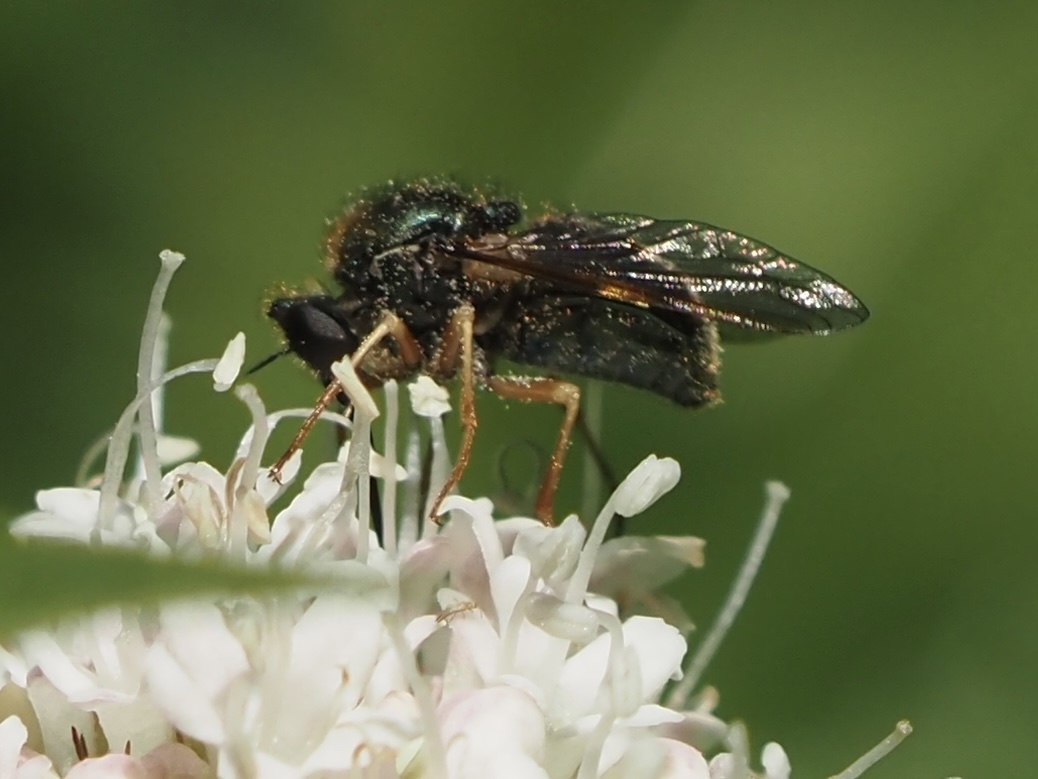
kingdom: Animalia
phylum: Arthropoda
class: Insecta
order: Diptera
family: Acroceridae
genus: Eulonchus
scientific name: Eulonchus sapphirinus
